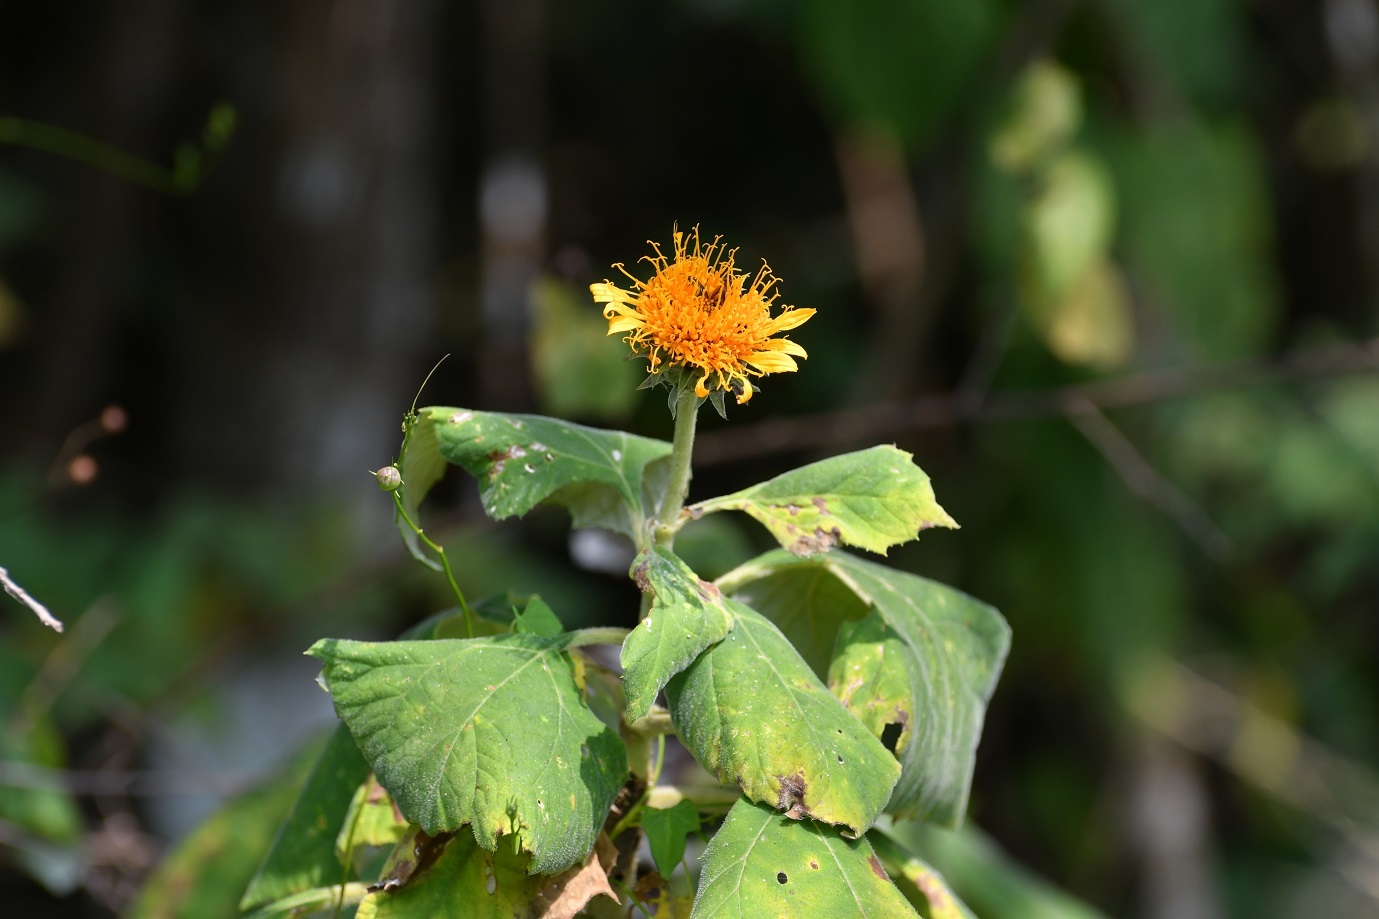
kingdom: Plantae
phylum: Tracheophyta
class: Magnoliopsida
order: Asterales
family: Asteraceae
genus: Sinclairia
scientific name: Sinclairia andrieuxii
